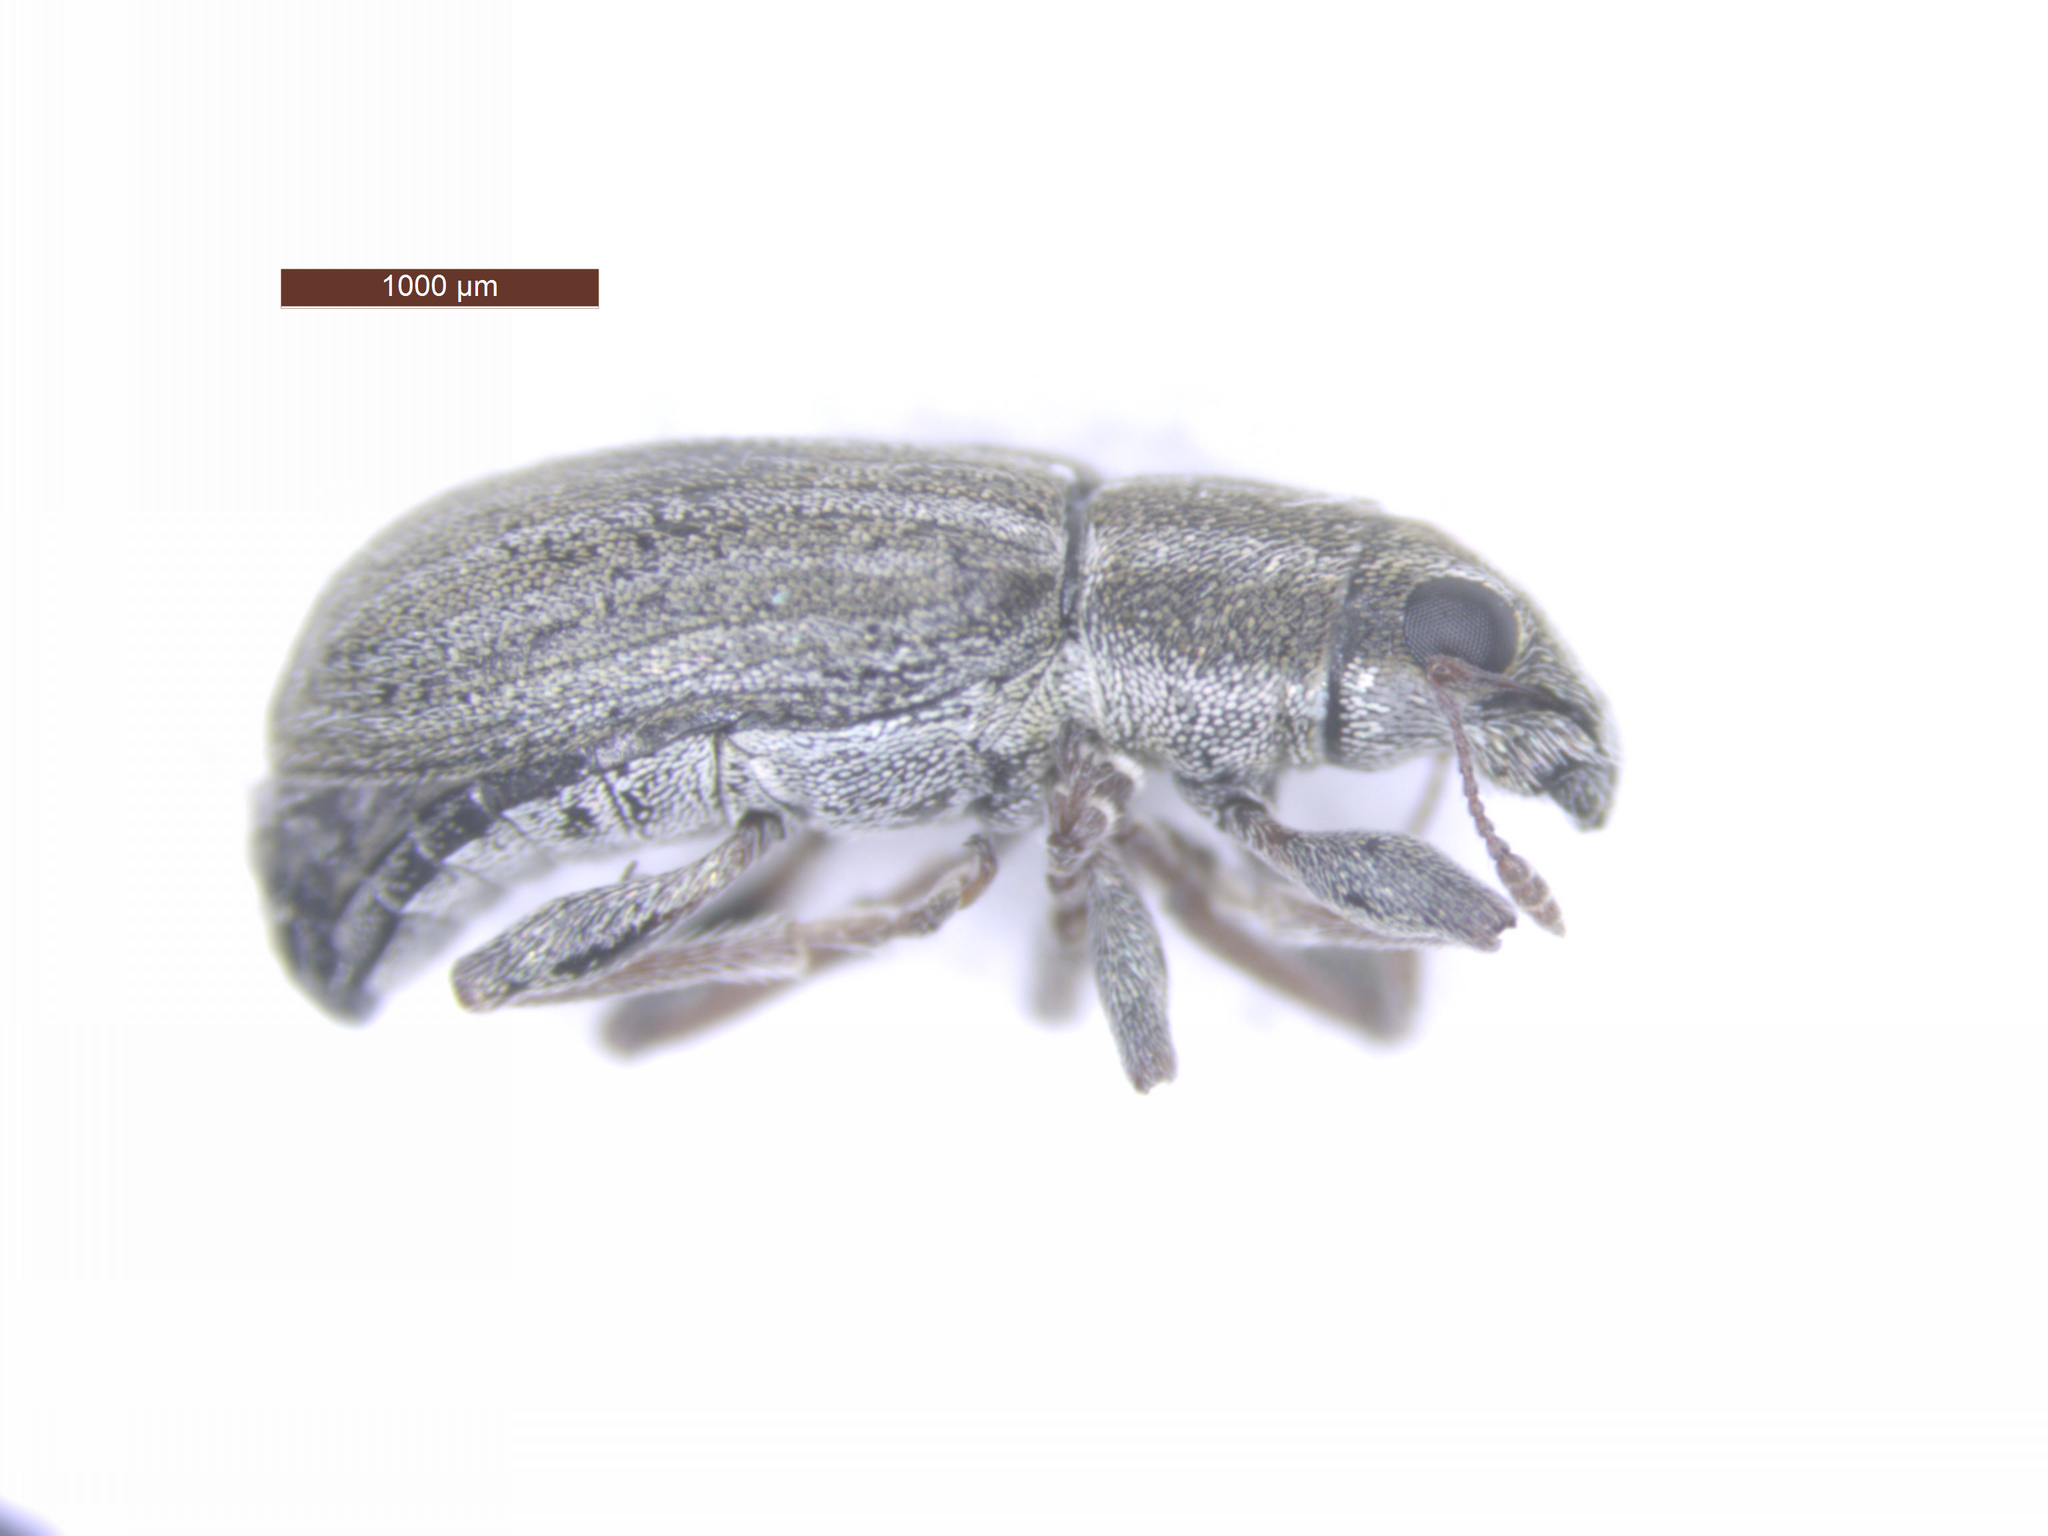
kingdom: Animalia
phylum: Arthropoda
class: Insecta
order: Coleoptera
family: Curculionidae
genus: Sitona
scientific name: Sitona lineatus
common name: Weevil
